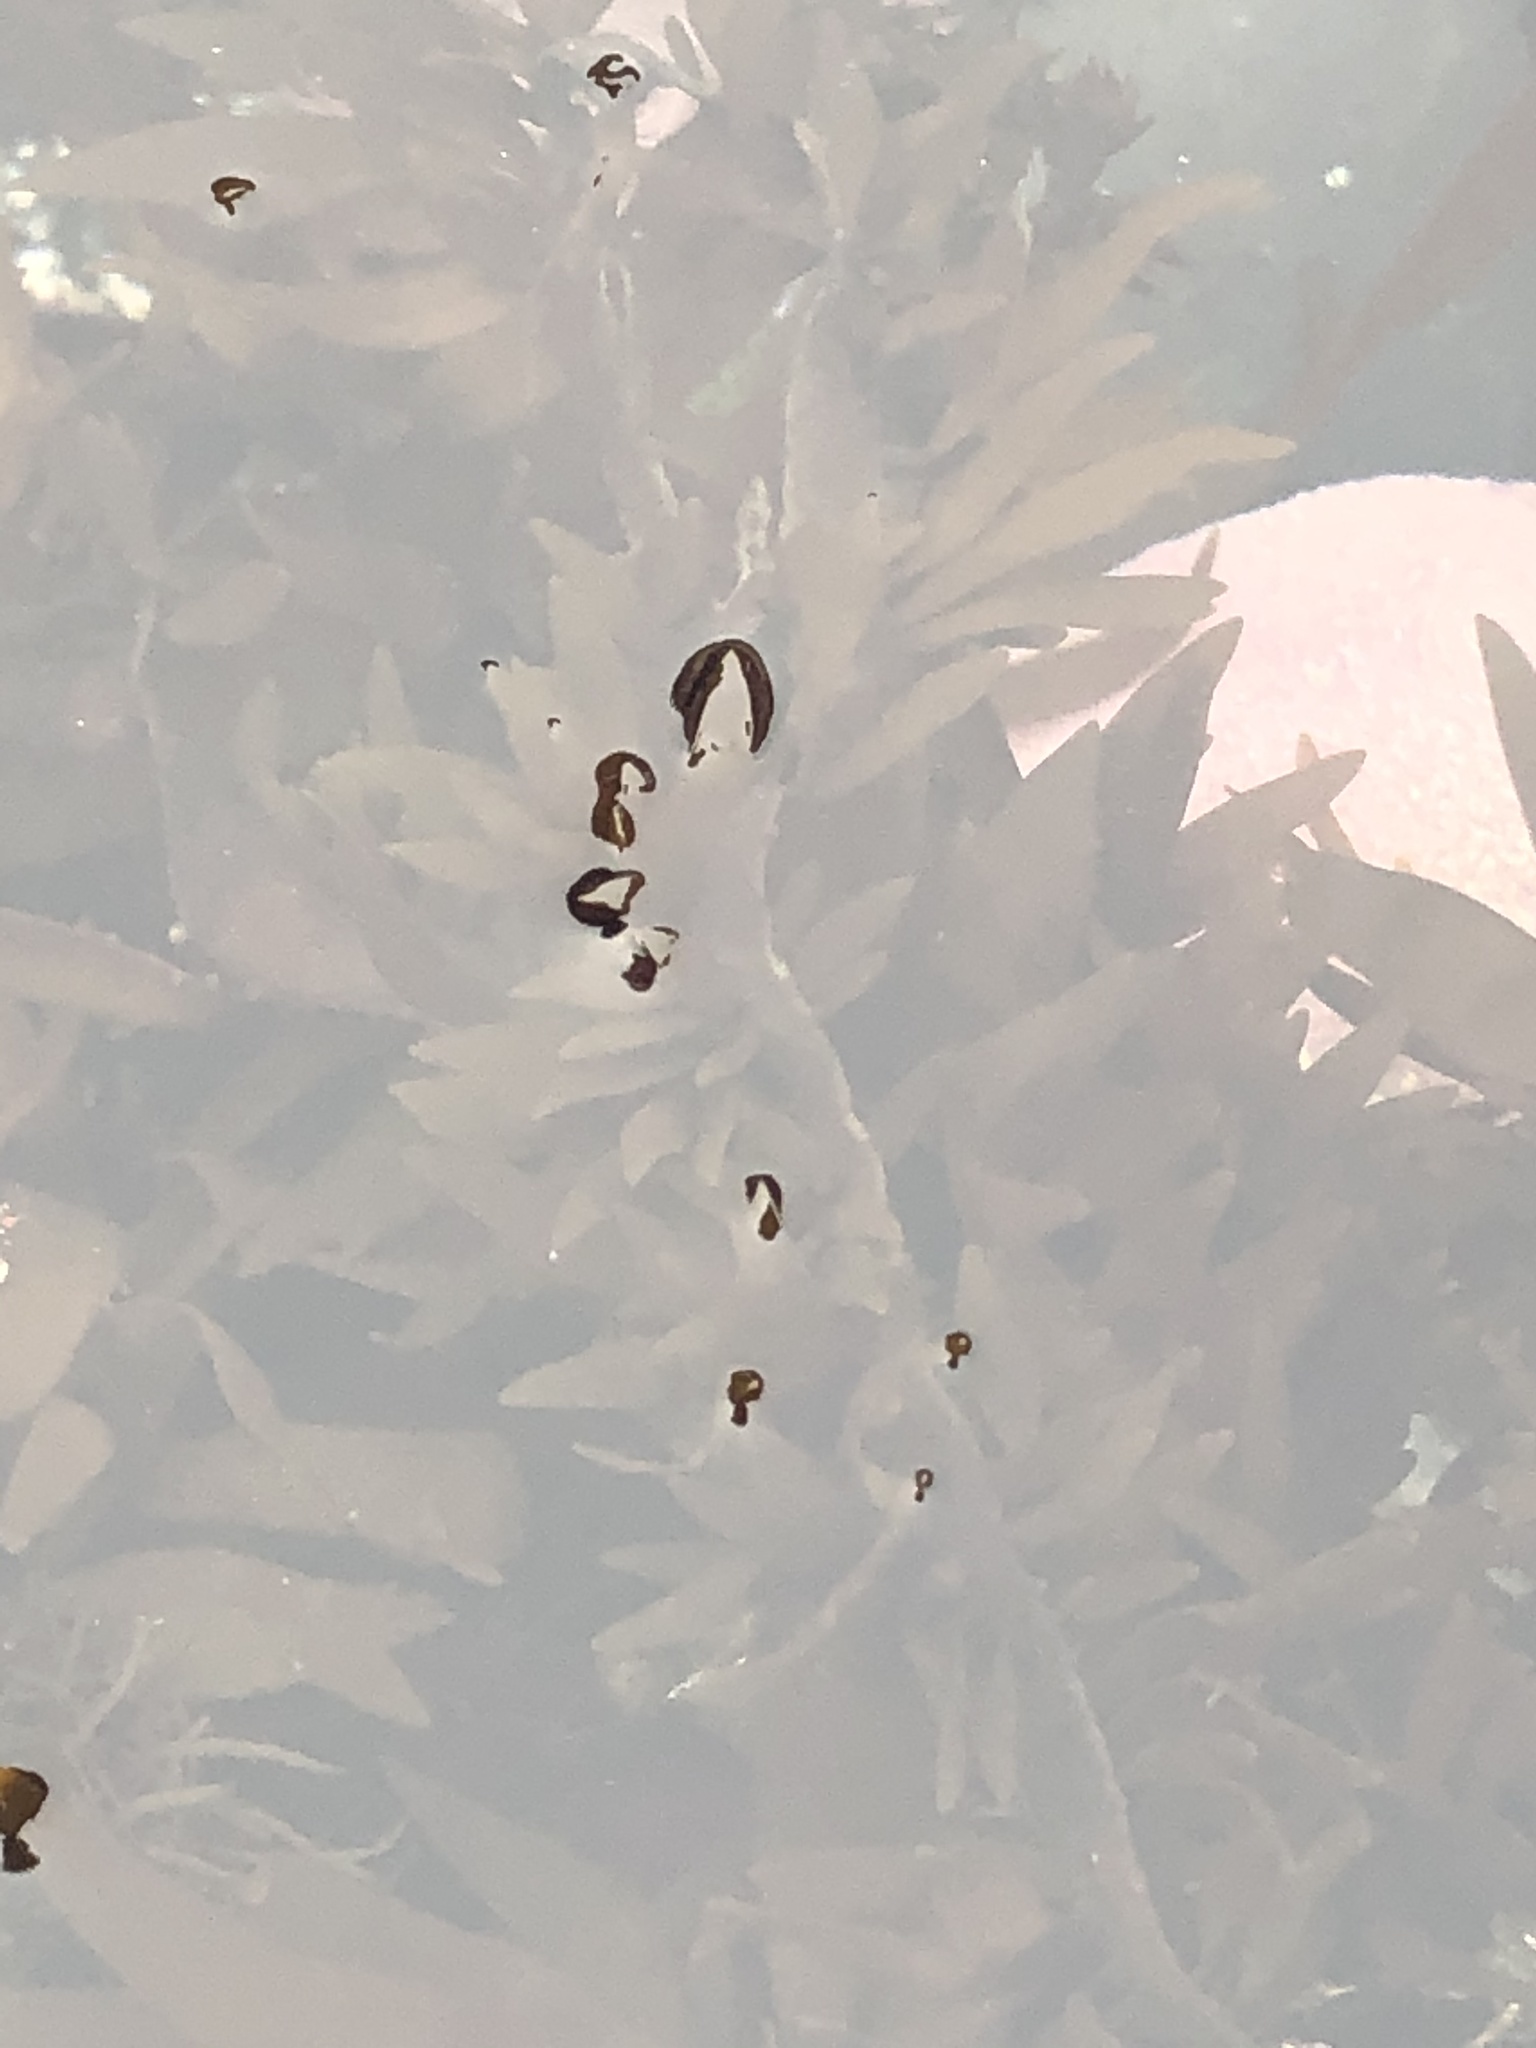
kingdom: Plantae
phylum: Rhodophyta
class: Florideophyceae
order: Halymeniales
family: Halymeniaceae
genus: Grateloupia
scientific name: Grateloupia Prionitis lanceolata
